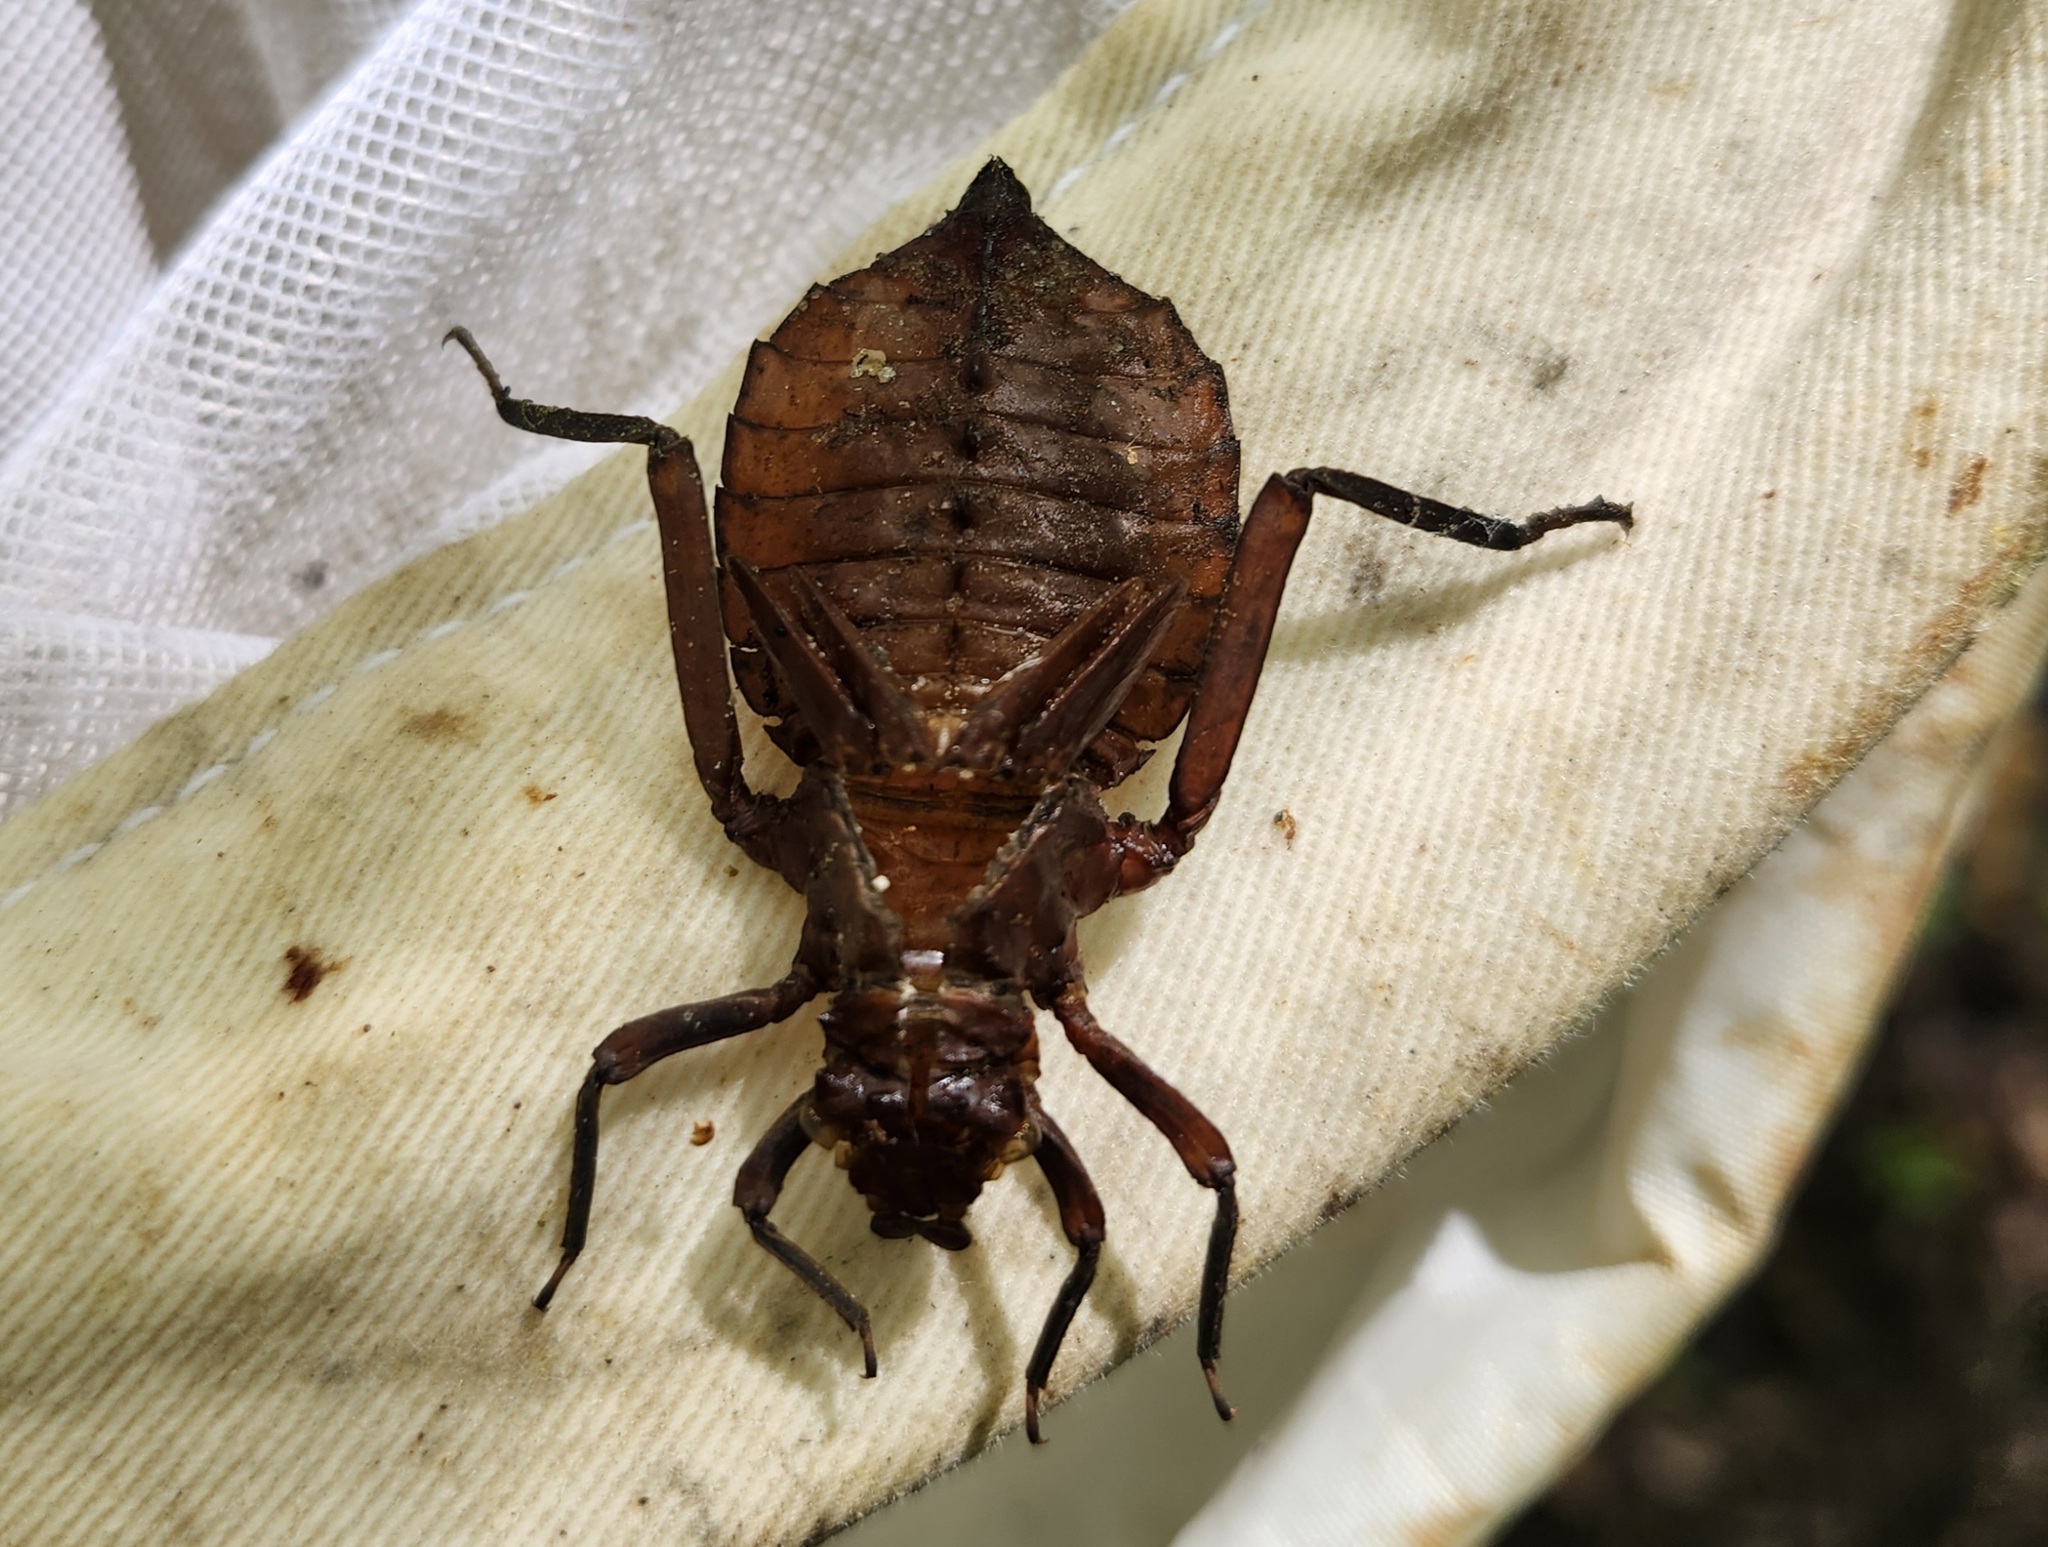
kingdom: Animalia
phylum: Arthropoda
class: Insecta
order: Odonata
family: Gomphidae
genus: Hagenius
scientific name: Hagenius brevistylus
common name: Dragonhunter
